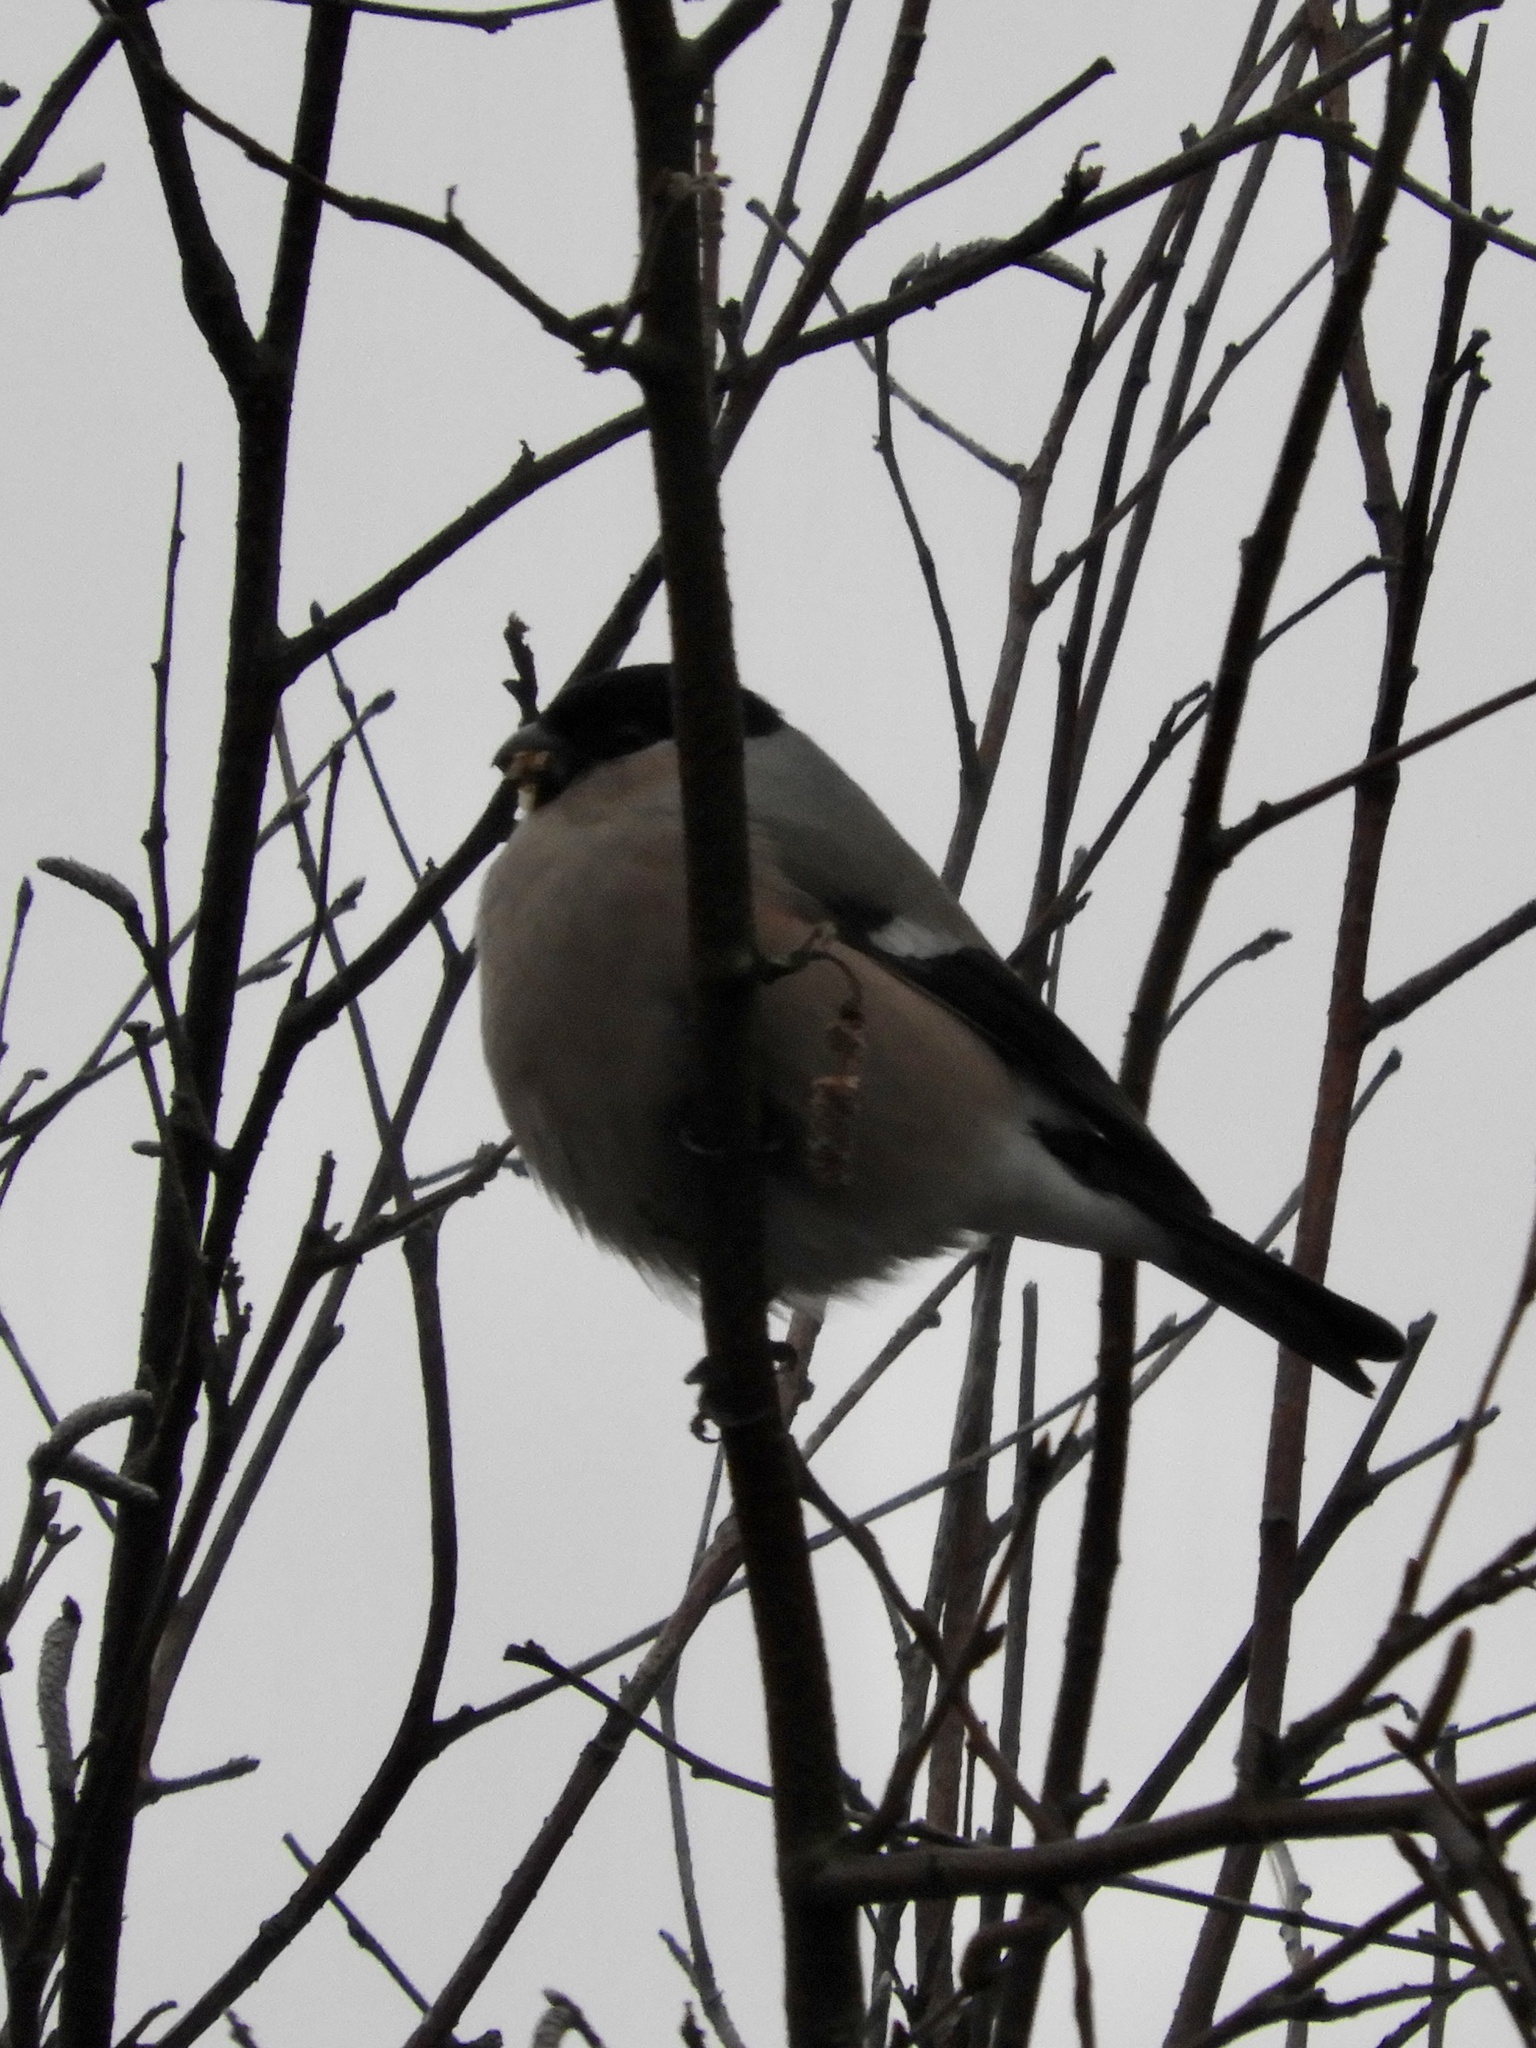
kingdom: Animalia
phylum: Chordata
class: Aves
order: Passeriformes
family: Fringillidae
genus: Pyrrhula
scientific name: Pyrrhula pyrrhula
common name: Eurasian bullfinch
